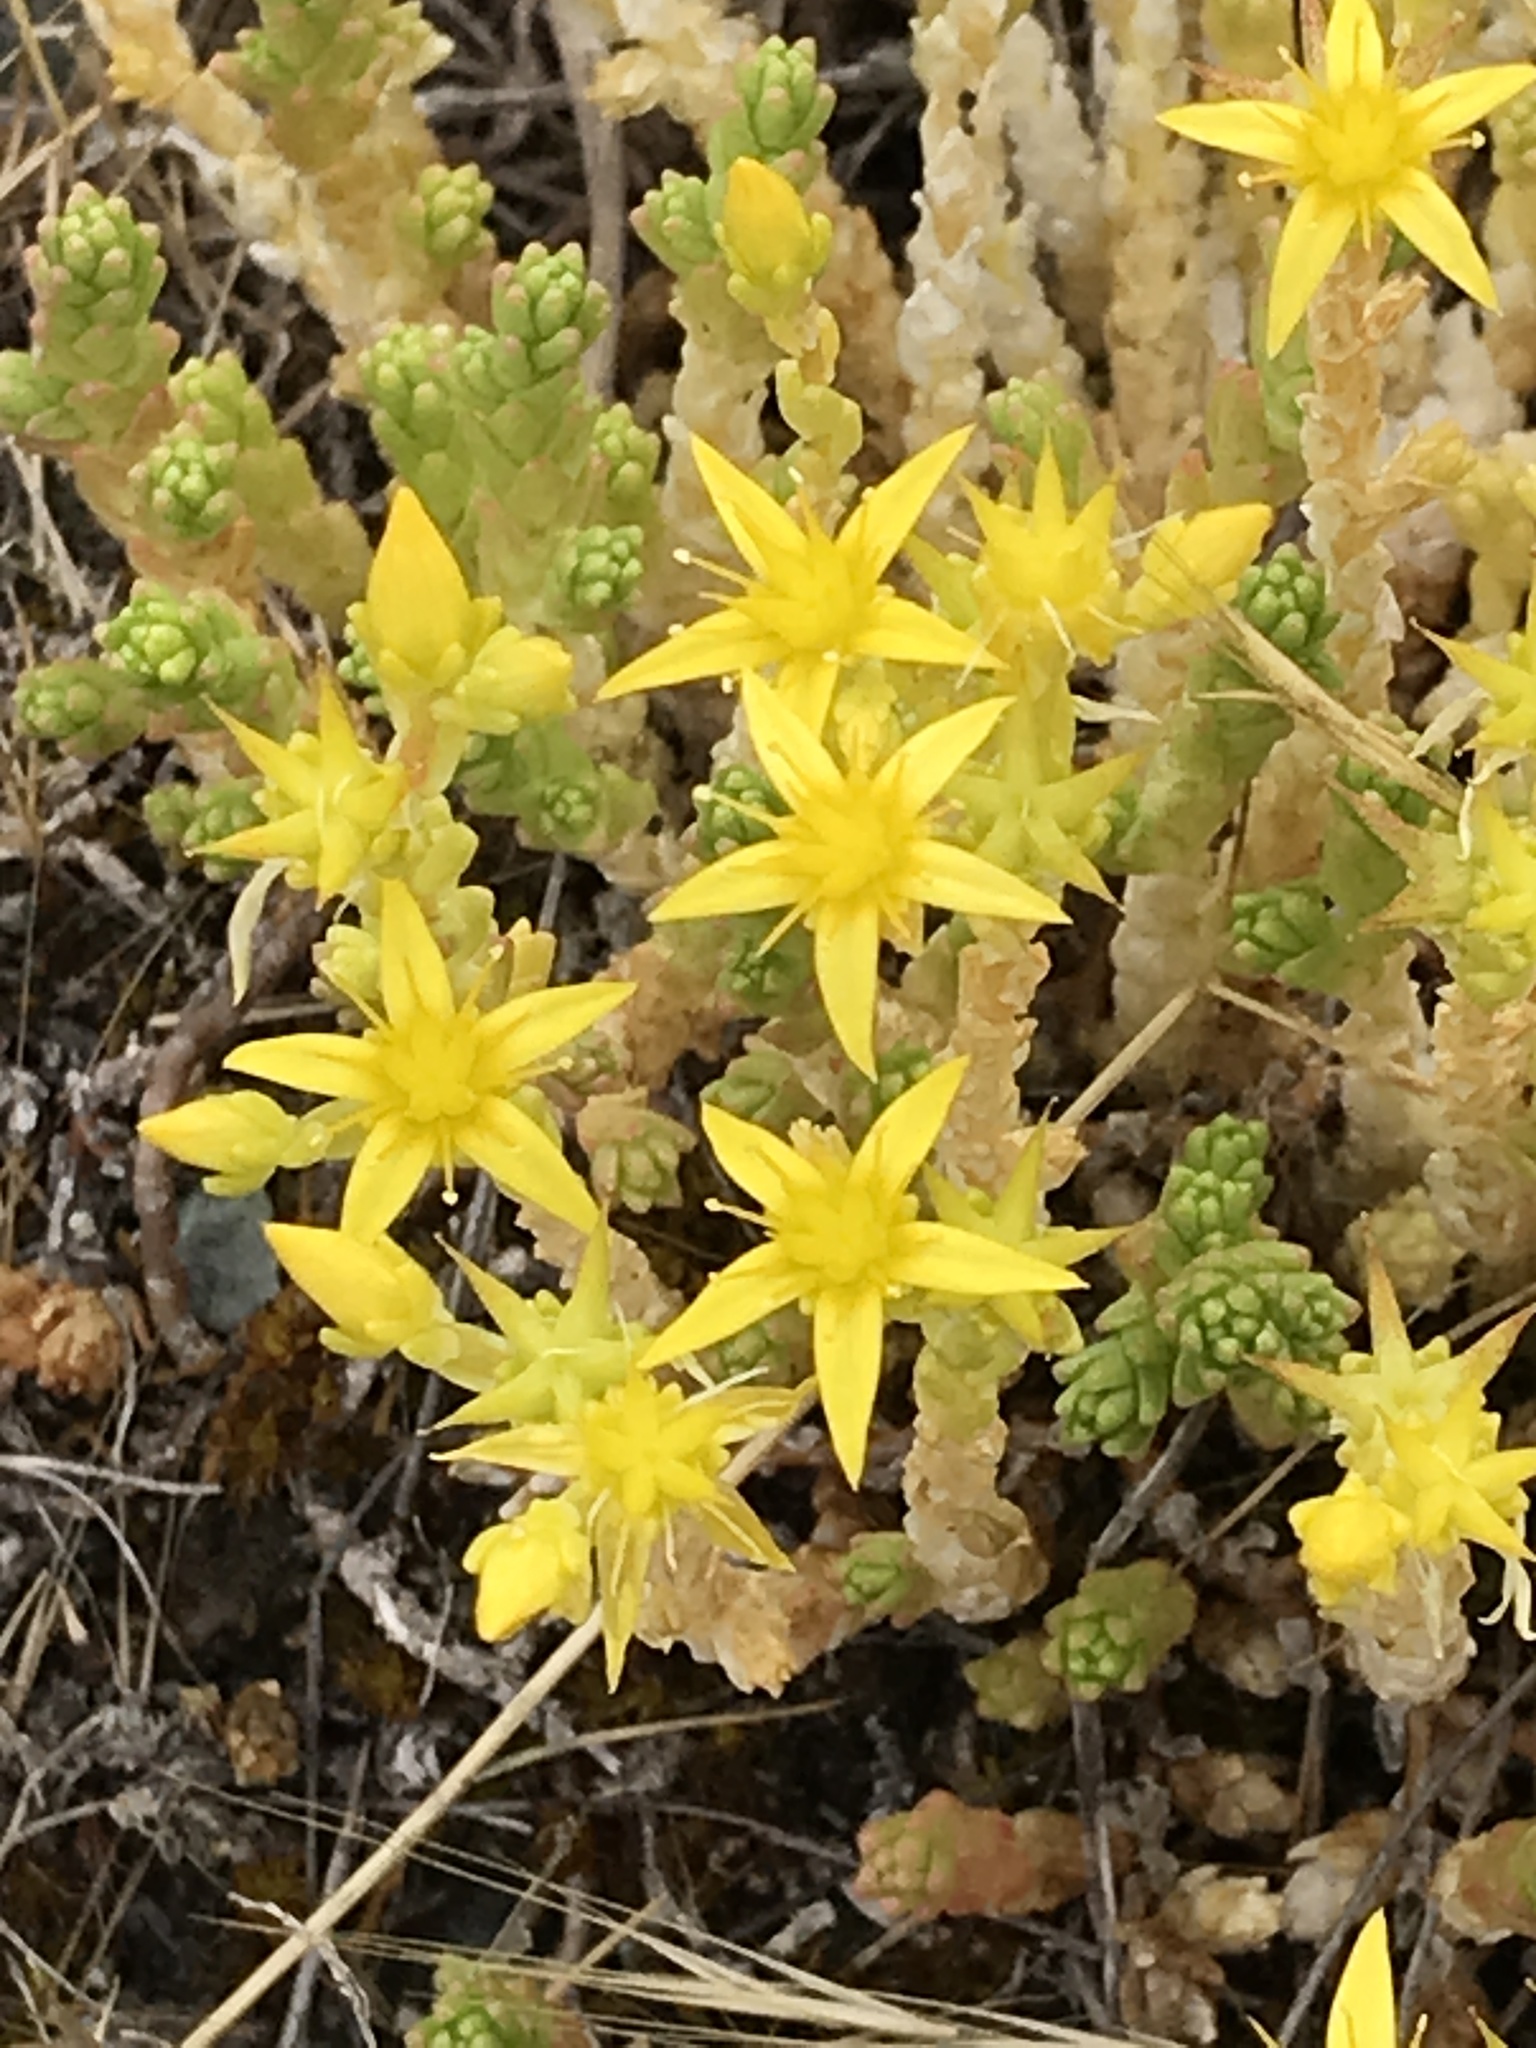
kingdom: Plantae
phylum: Tracheophyta
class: Magnoliopsida
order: Saxifragales
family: Crassulaceae
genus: Sedum
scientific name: Sedum acre
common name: Biting stonecrop
